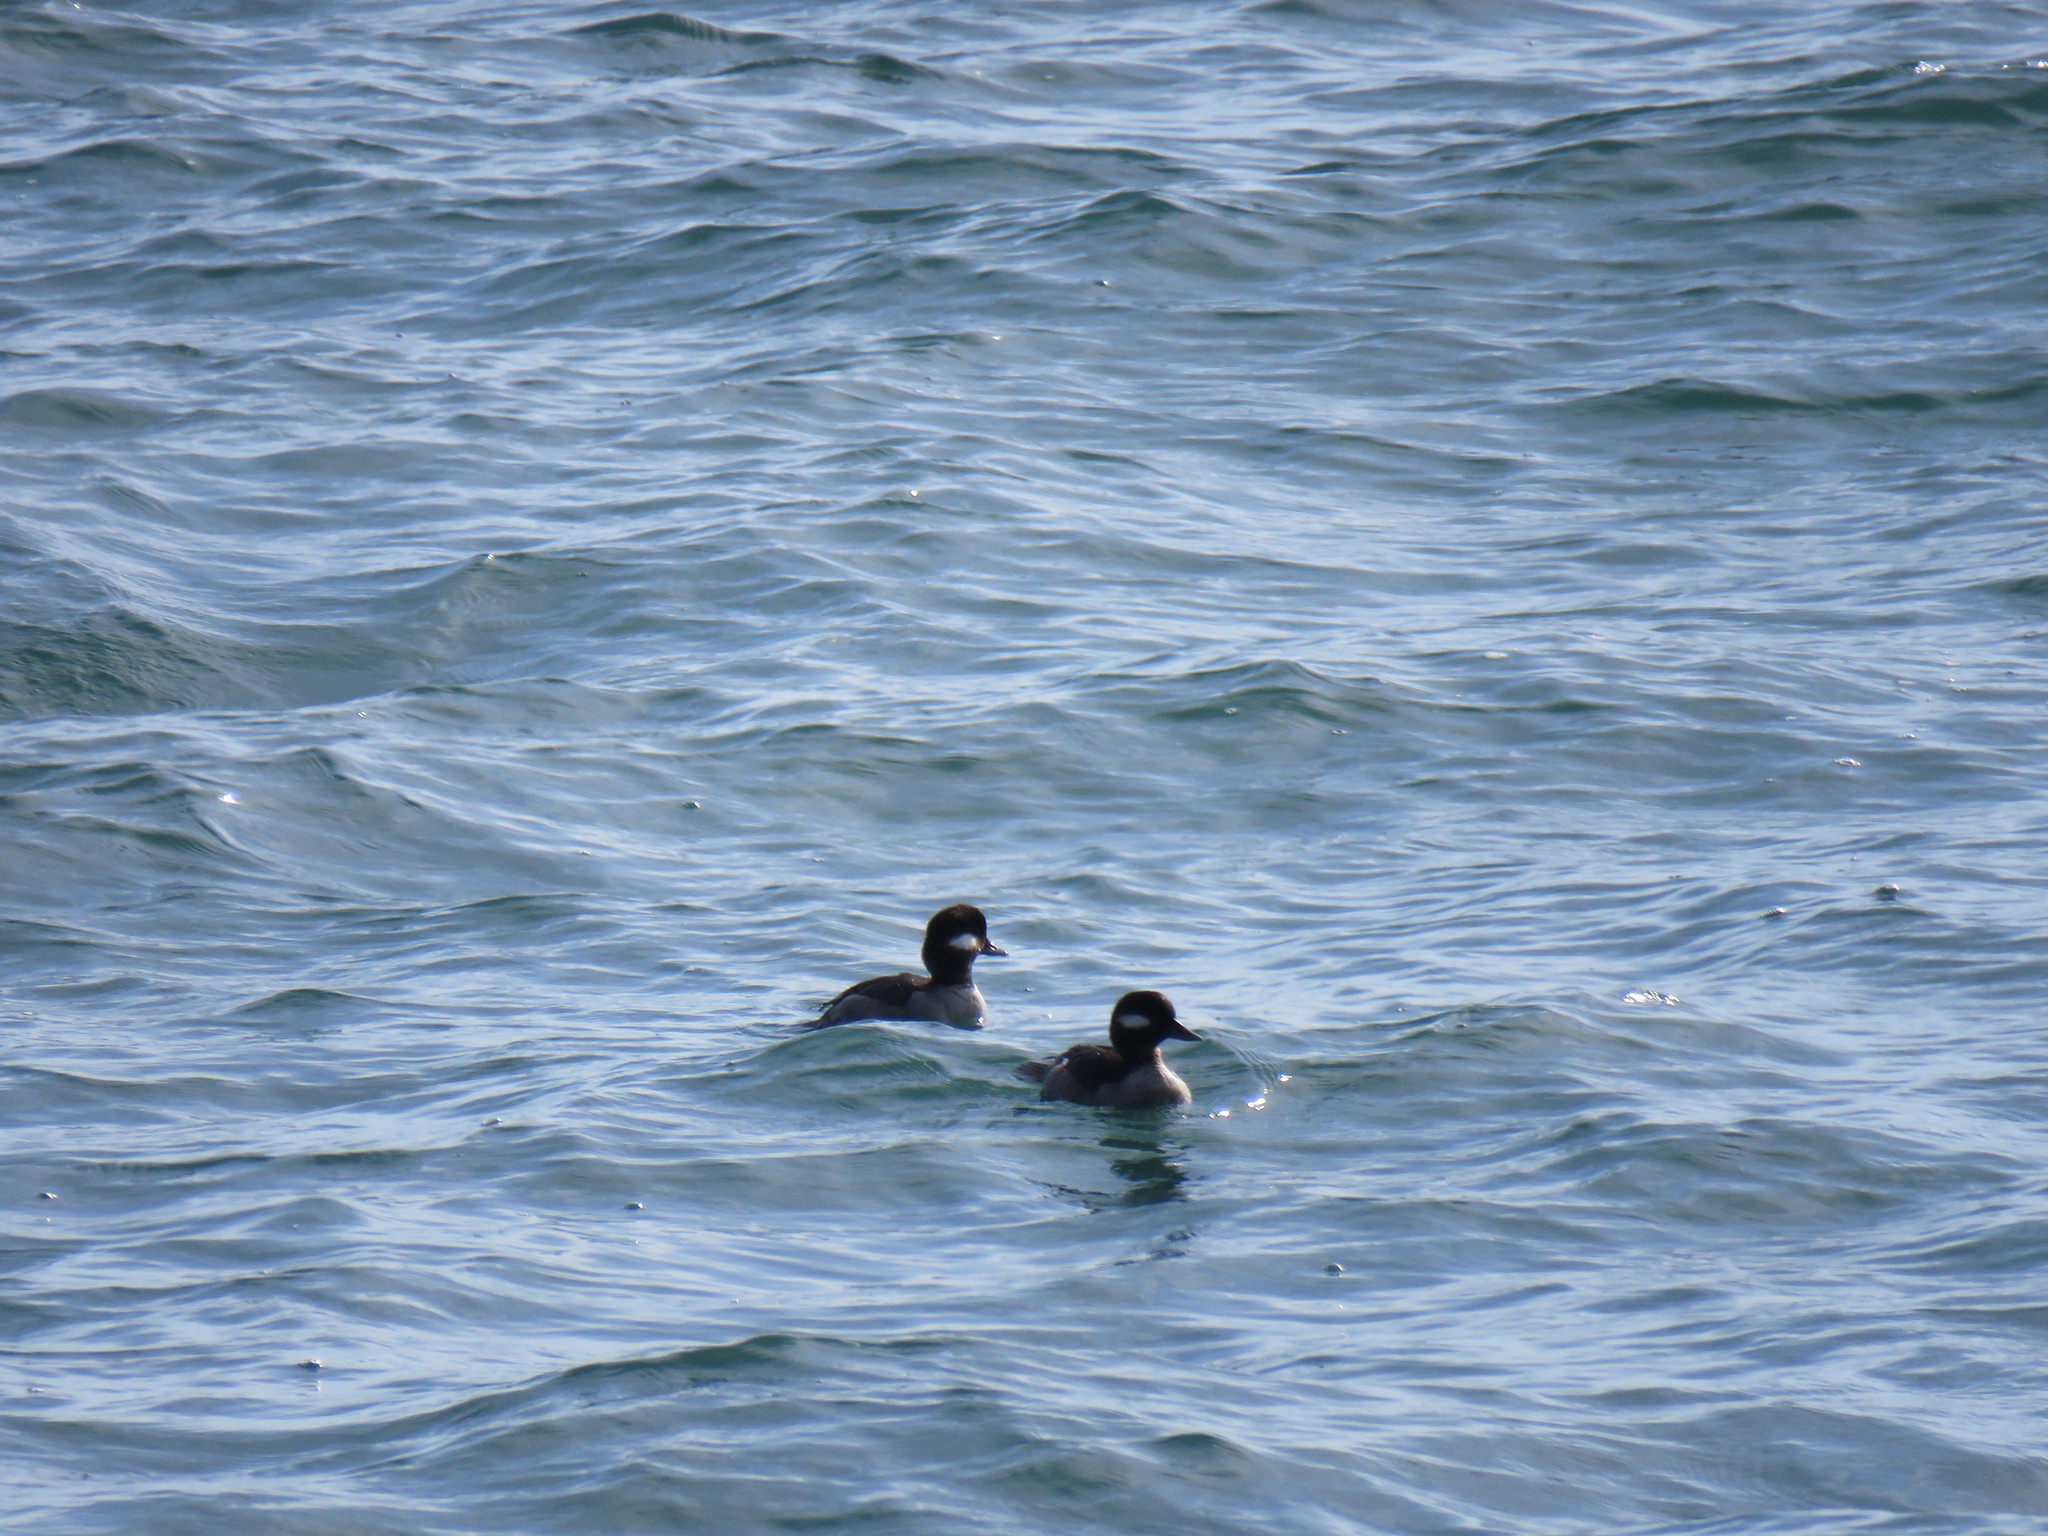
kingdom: Animalia
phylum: Chordata
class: Aves
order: Anseriformes
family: Anatidae
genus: Bucephala
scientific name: Bucephala albeola
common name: Bufflehead
